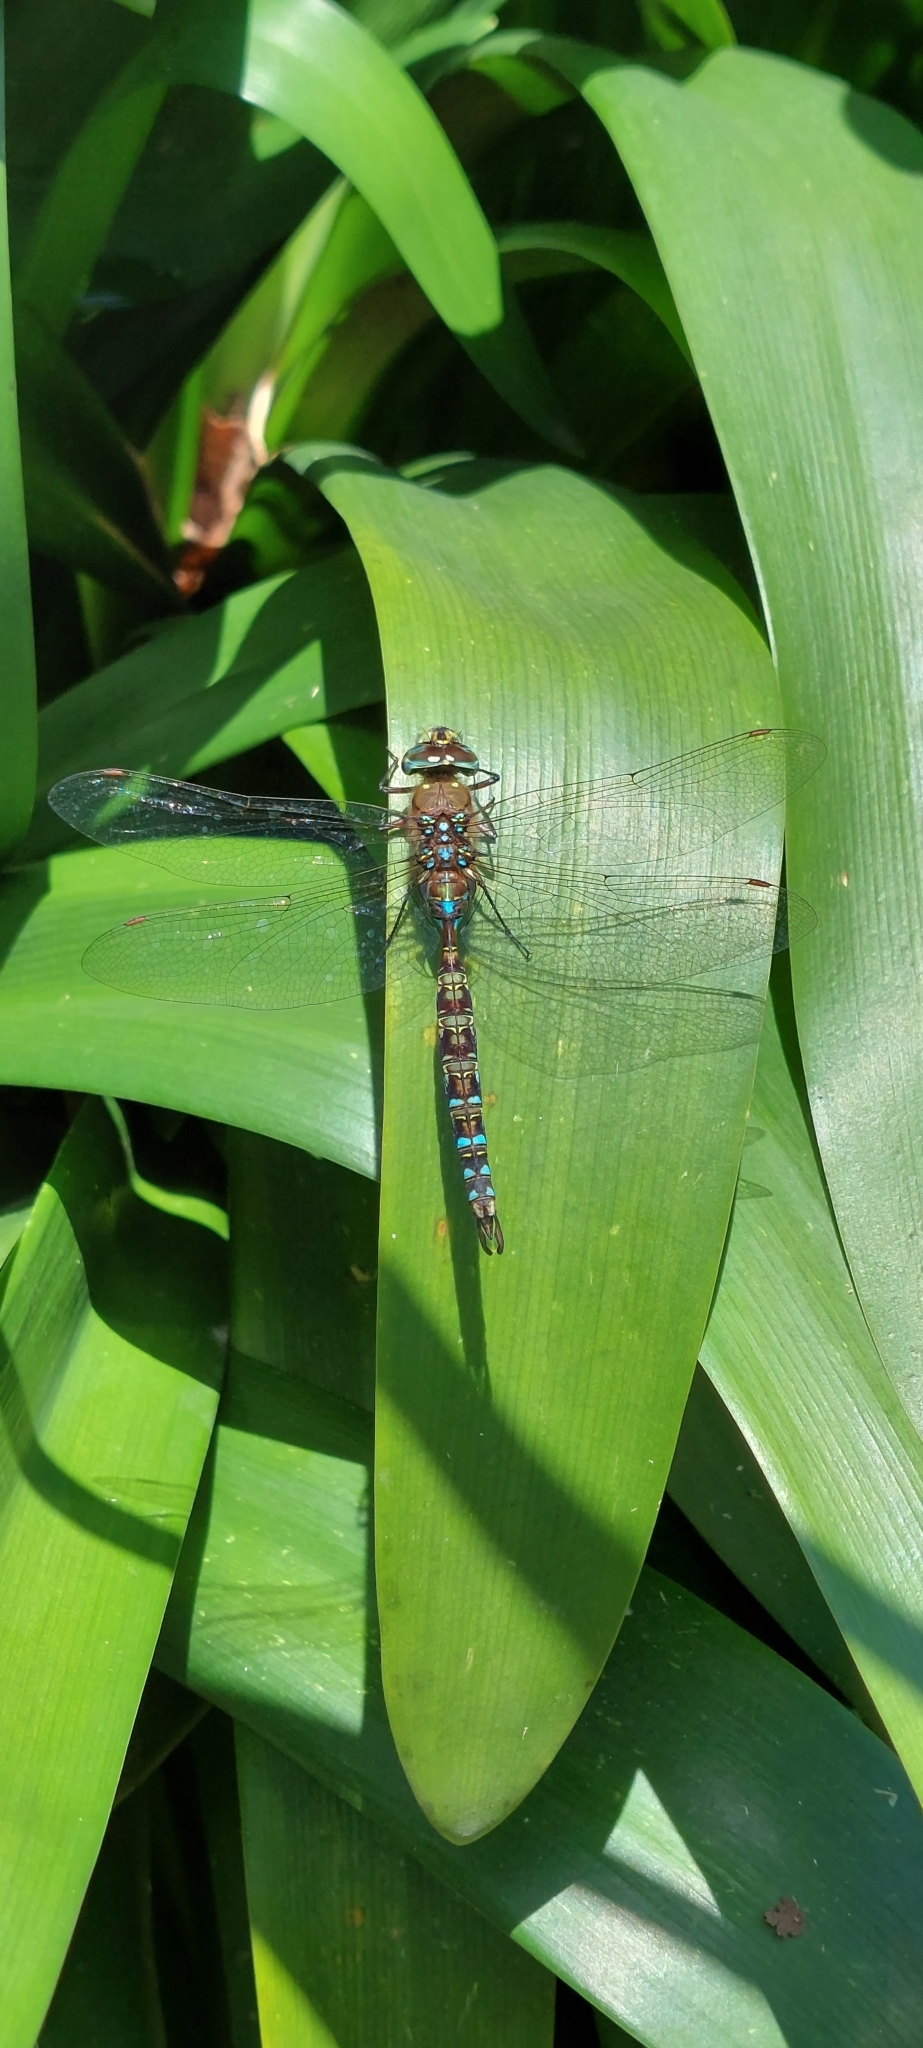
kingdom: Animalia
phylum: Arthropoda
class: Insecta
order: Odonata
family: Aeshnidae
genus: Rhionaeschna
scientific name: Rhionaeschna marchali
